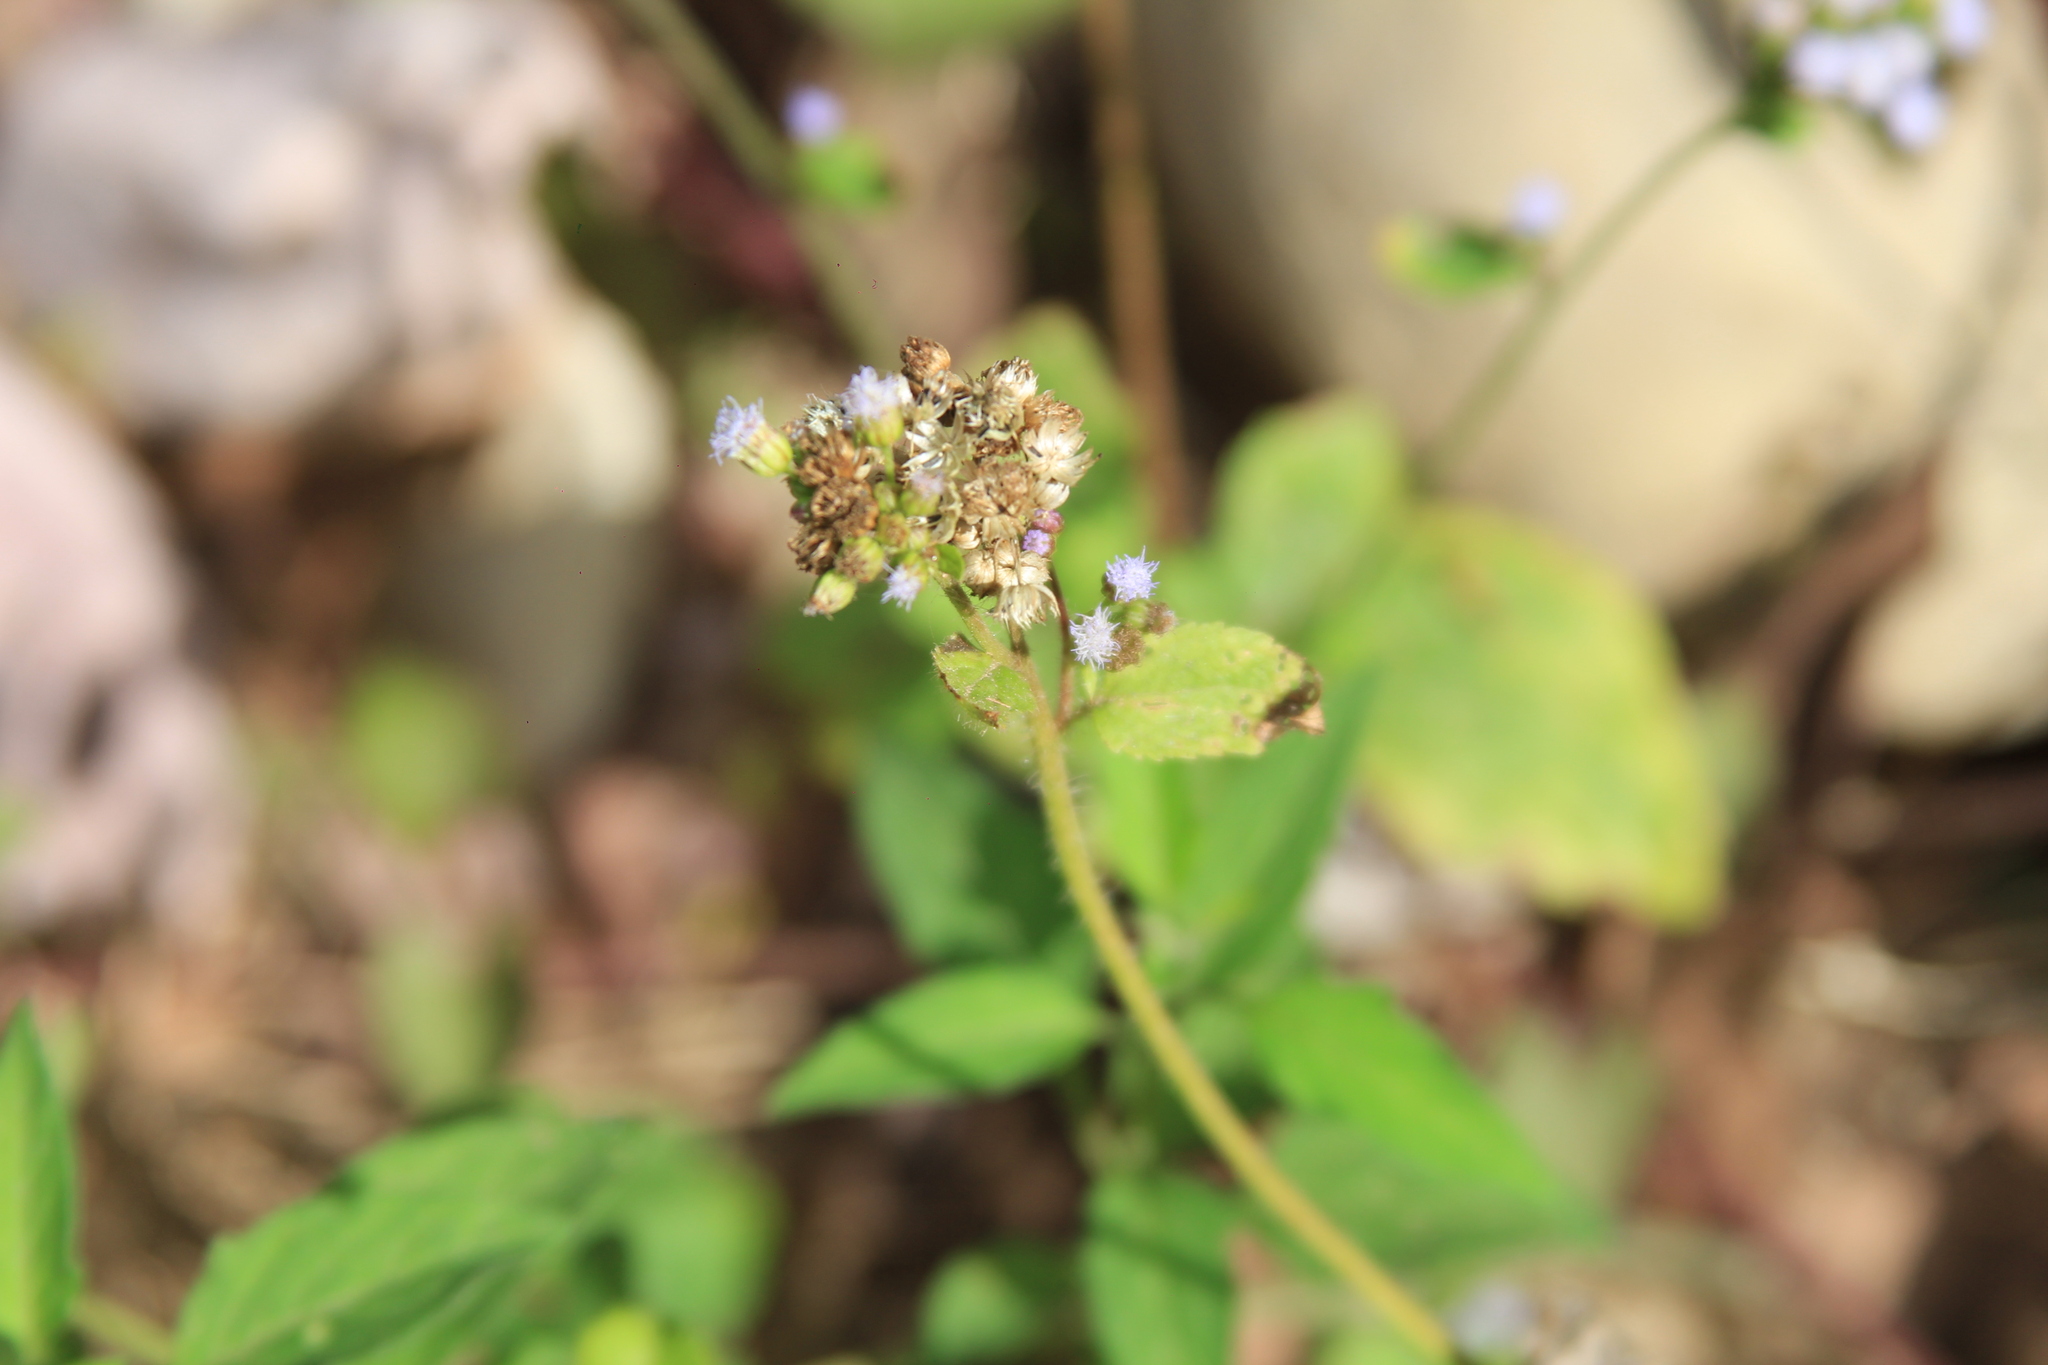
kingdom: Plantae
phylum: Tracheophyta
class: Magnoliopsida
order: Asterales
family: Asteraceae
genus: Ageratum
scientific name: Ageratum conyzoides
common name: Tropical whiteweed
